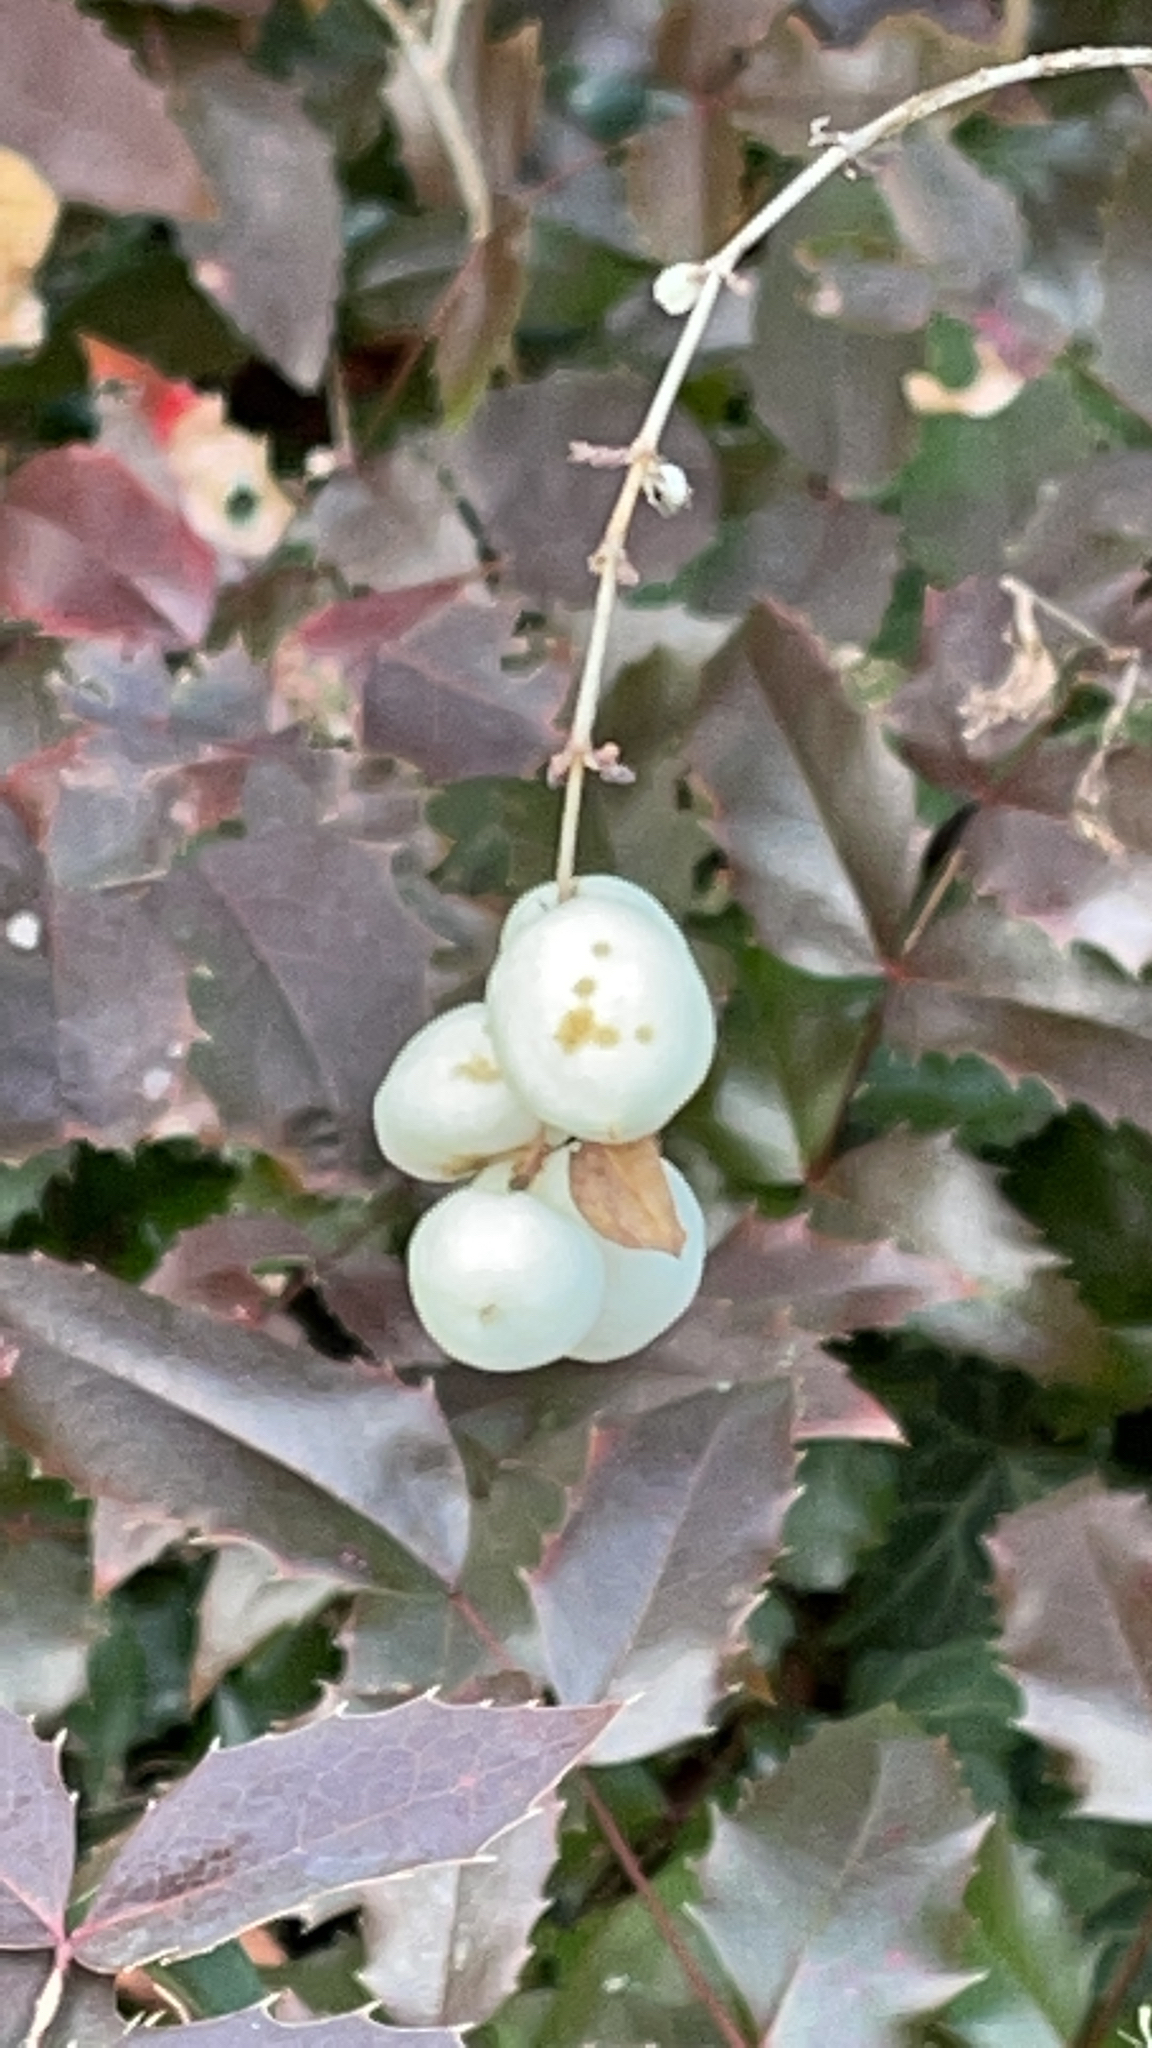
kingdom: Plantae
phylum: Tracheophyta
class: Magnoliopsida
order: Dipsacales
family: Caprifoliaceae
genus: Symphoricarpos
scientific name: Symphoricarpos albus
